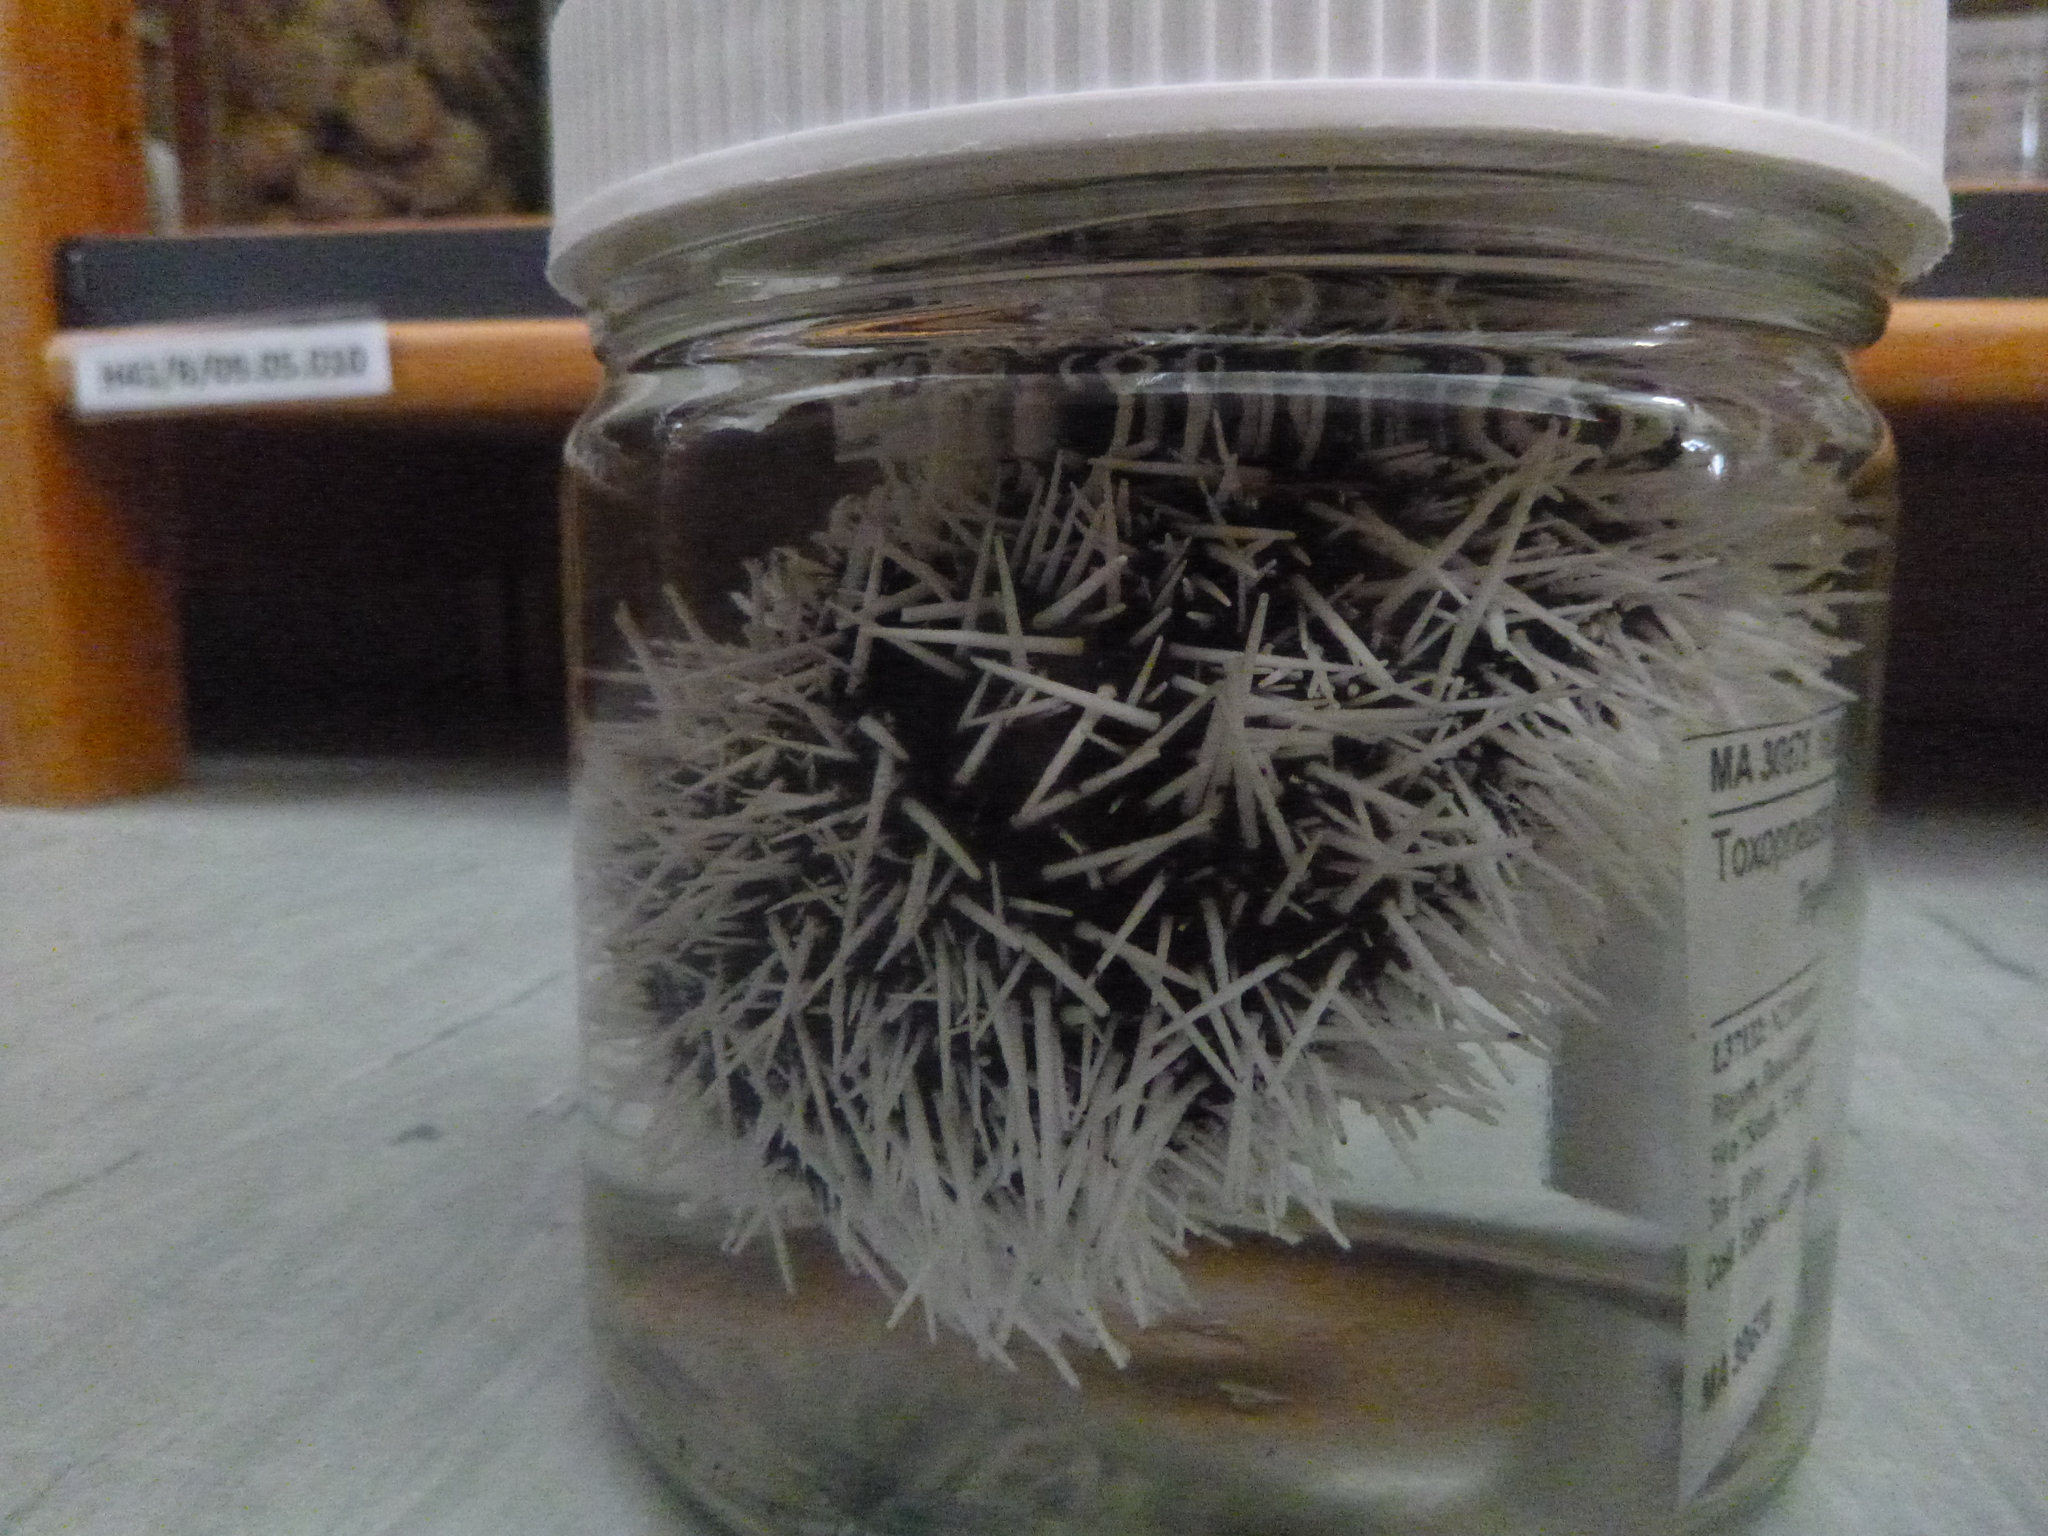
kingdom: Animalia
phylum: Echinodermata
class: Echinoidea
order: Camarodonta
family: Toxopneustidae
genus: Tripneustes
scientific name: Tripneustes kermadecensis
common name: Lamington urchin
